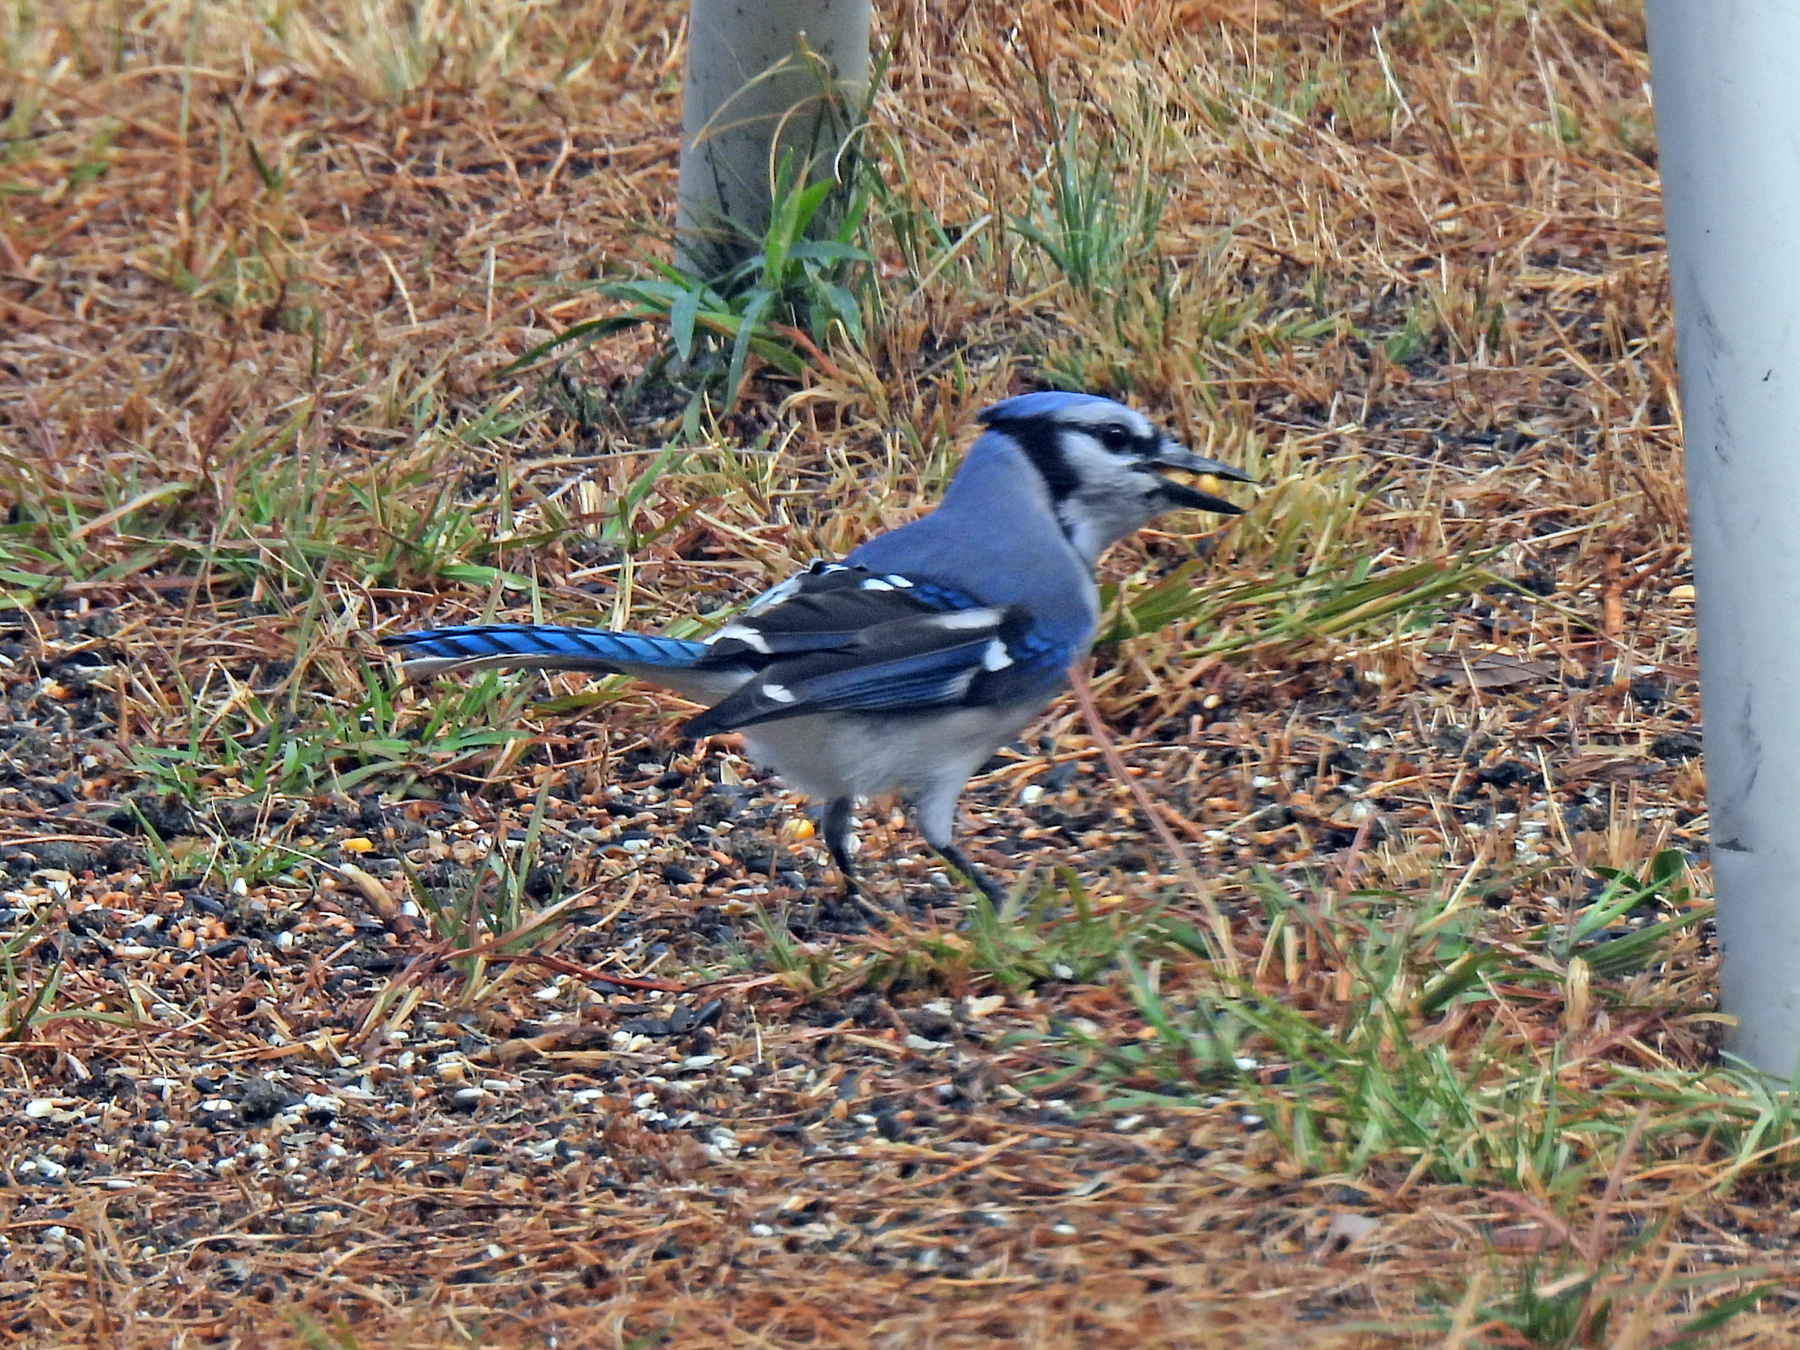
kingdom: Animalia
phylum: Chordata
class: Aves
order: Passeriformes
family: Corvidae
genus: Cyanocitta
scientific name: Cyanocitta cristata
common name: Blue jay
